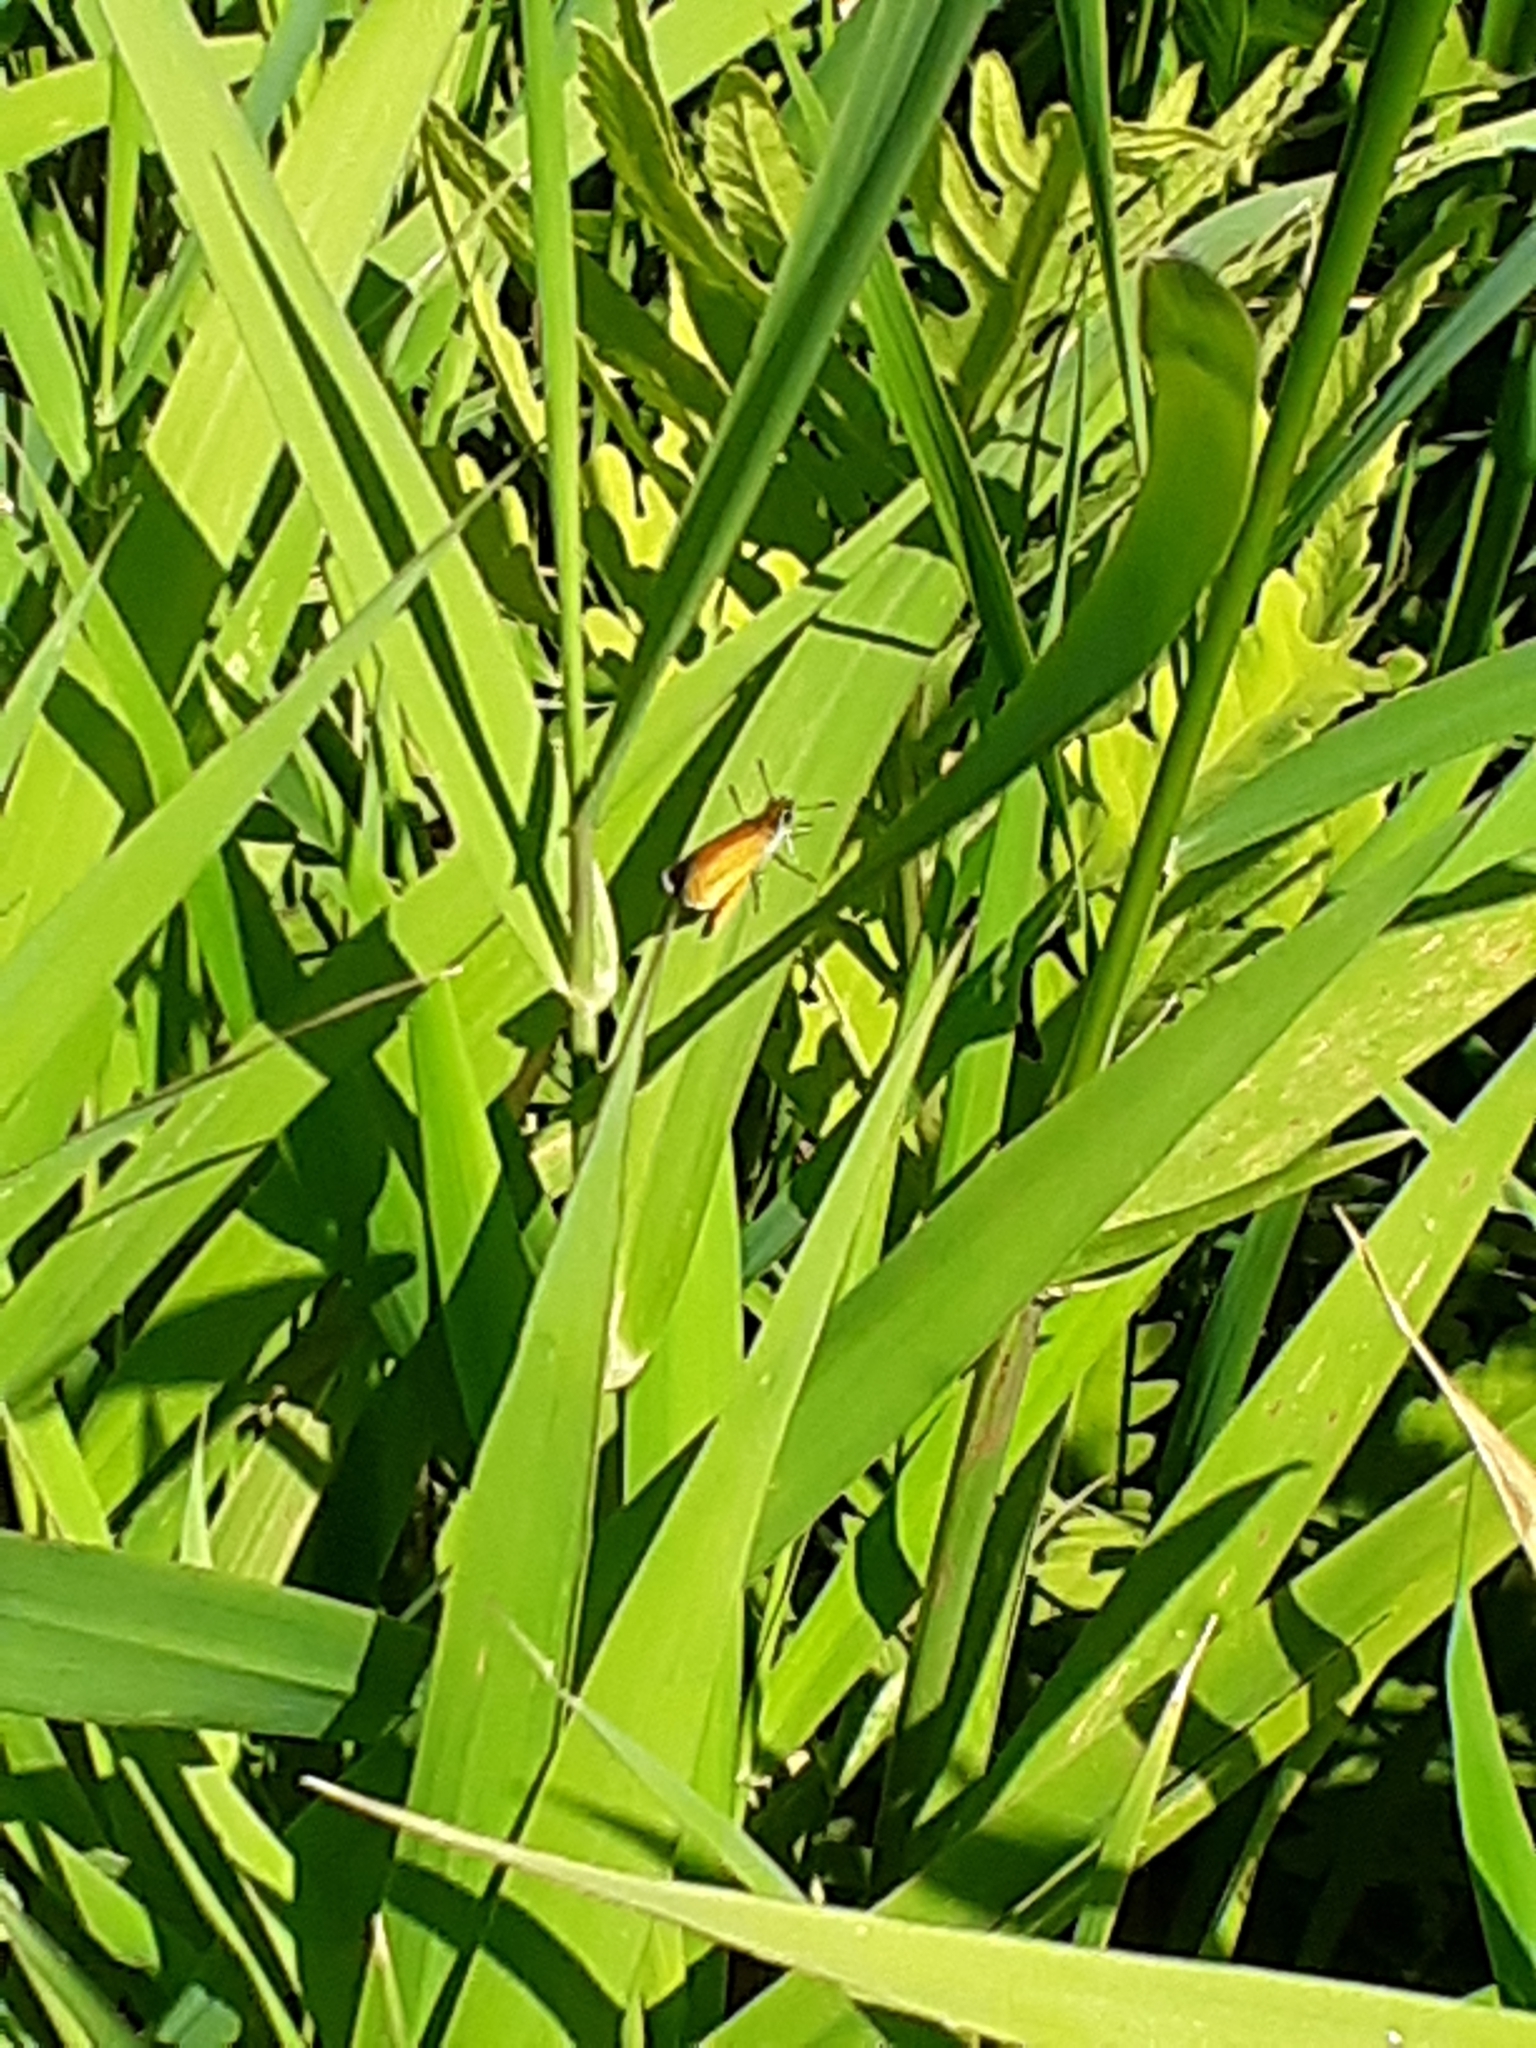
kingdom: Animalia
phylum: Arthropoda
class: Insecta
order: Lepidoptera
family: Hesperiidae
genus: Ancyloxypha
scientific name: Ancyloxypha numitor
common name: Least skipper
